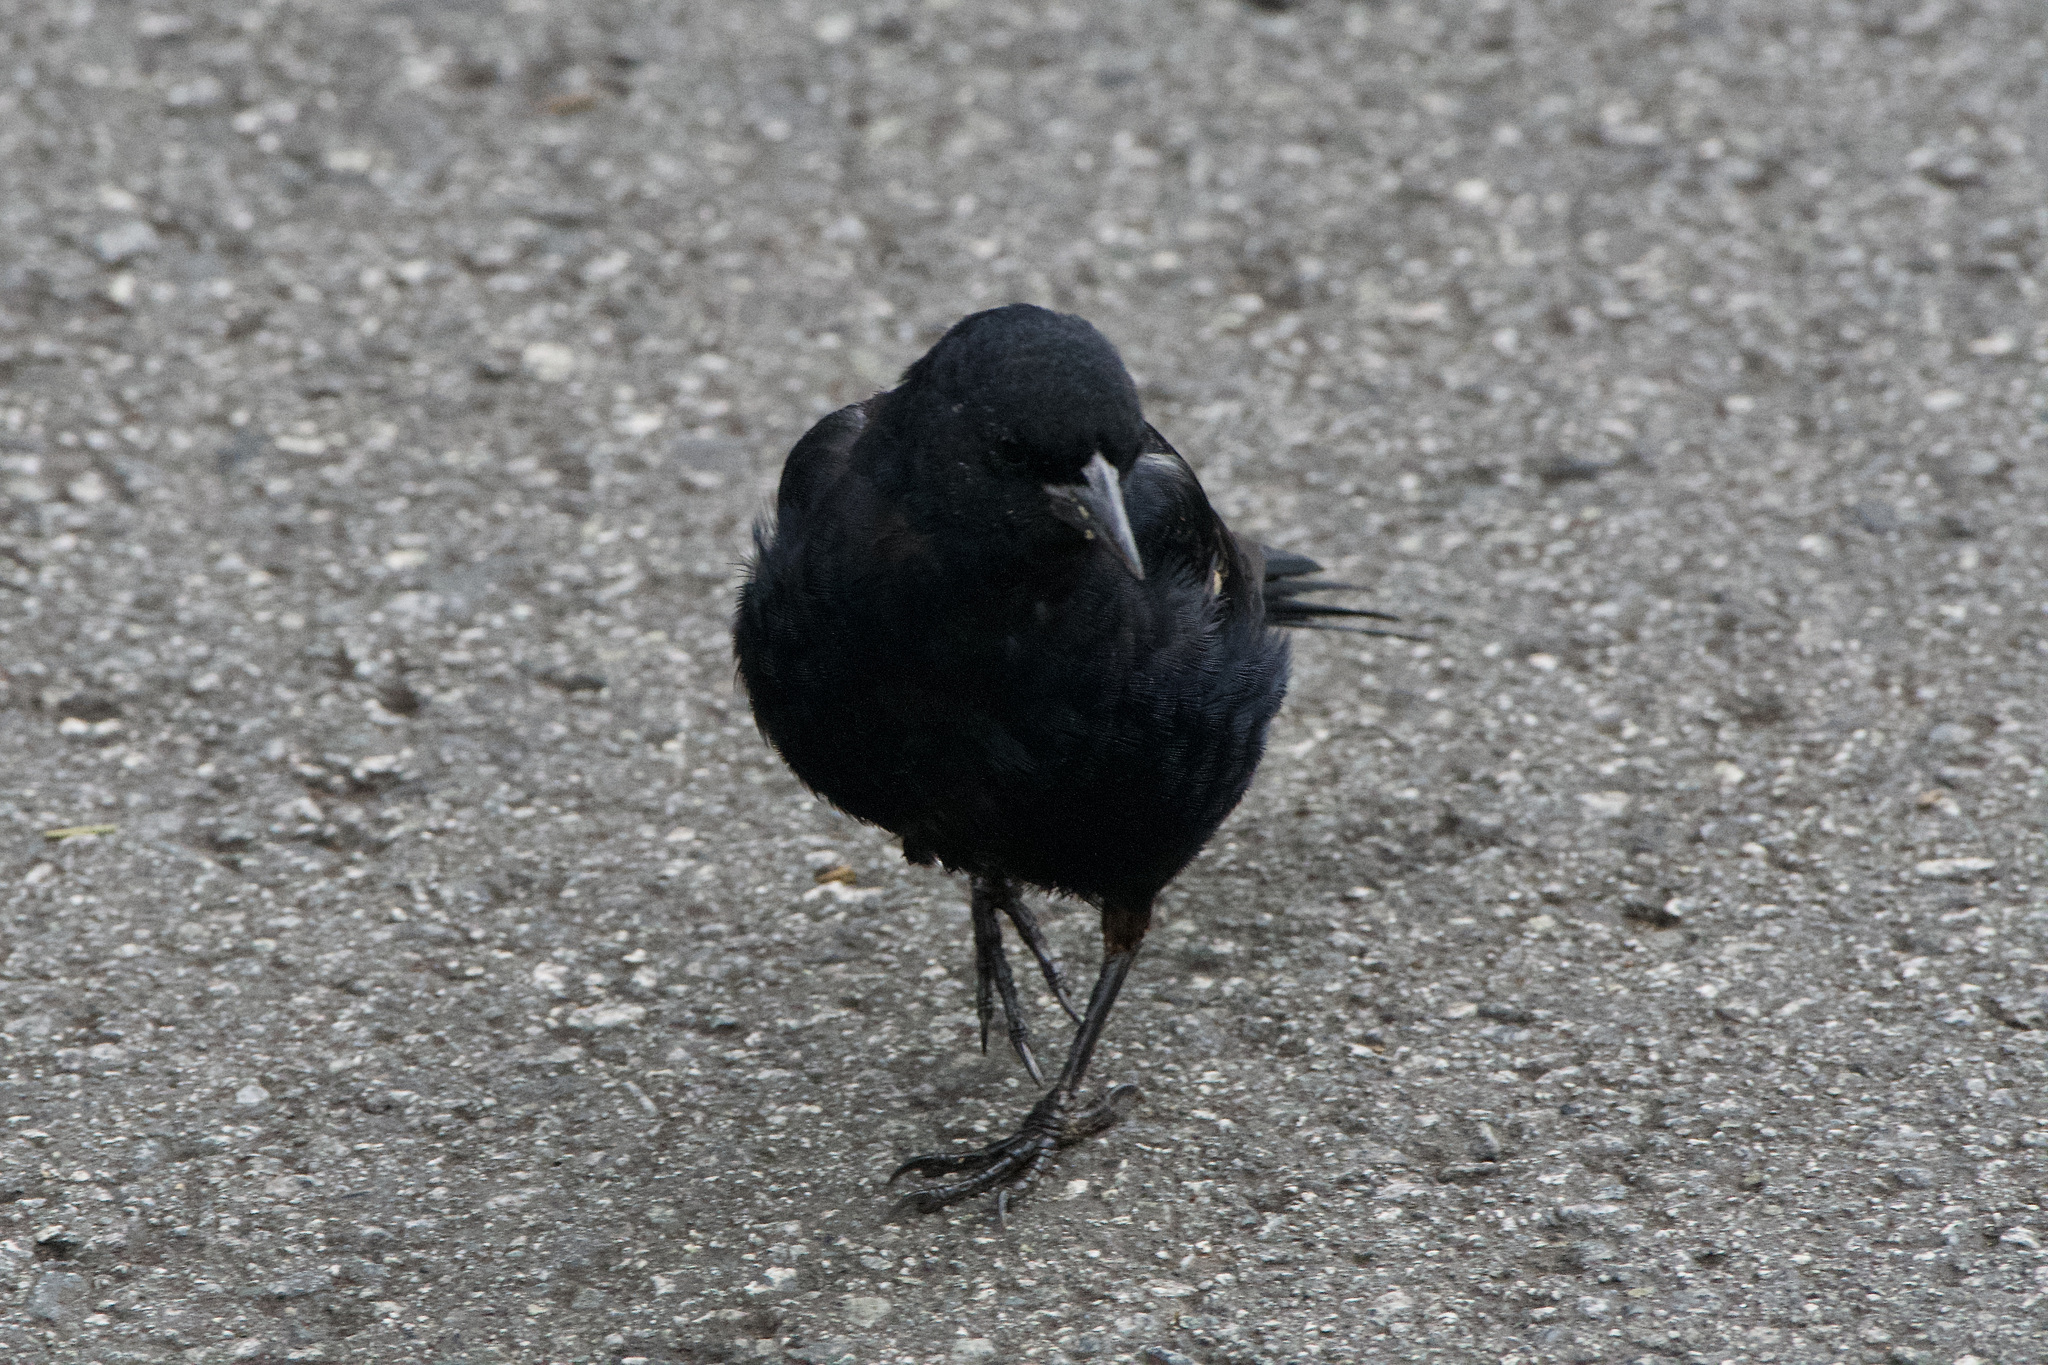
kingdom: Animalia
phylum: Chordata
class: Aves
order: Passeriformes
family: Icteridae
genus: Agelaius
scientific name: Agelaius tricolor
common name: Tricolored blackbird
